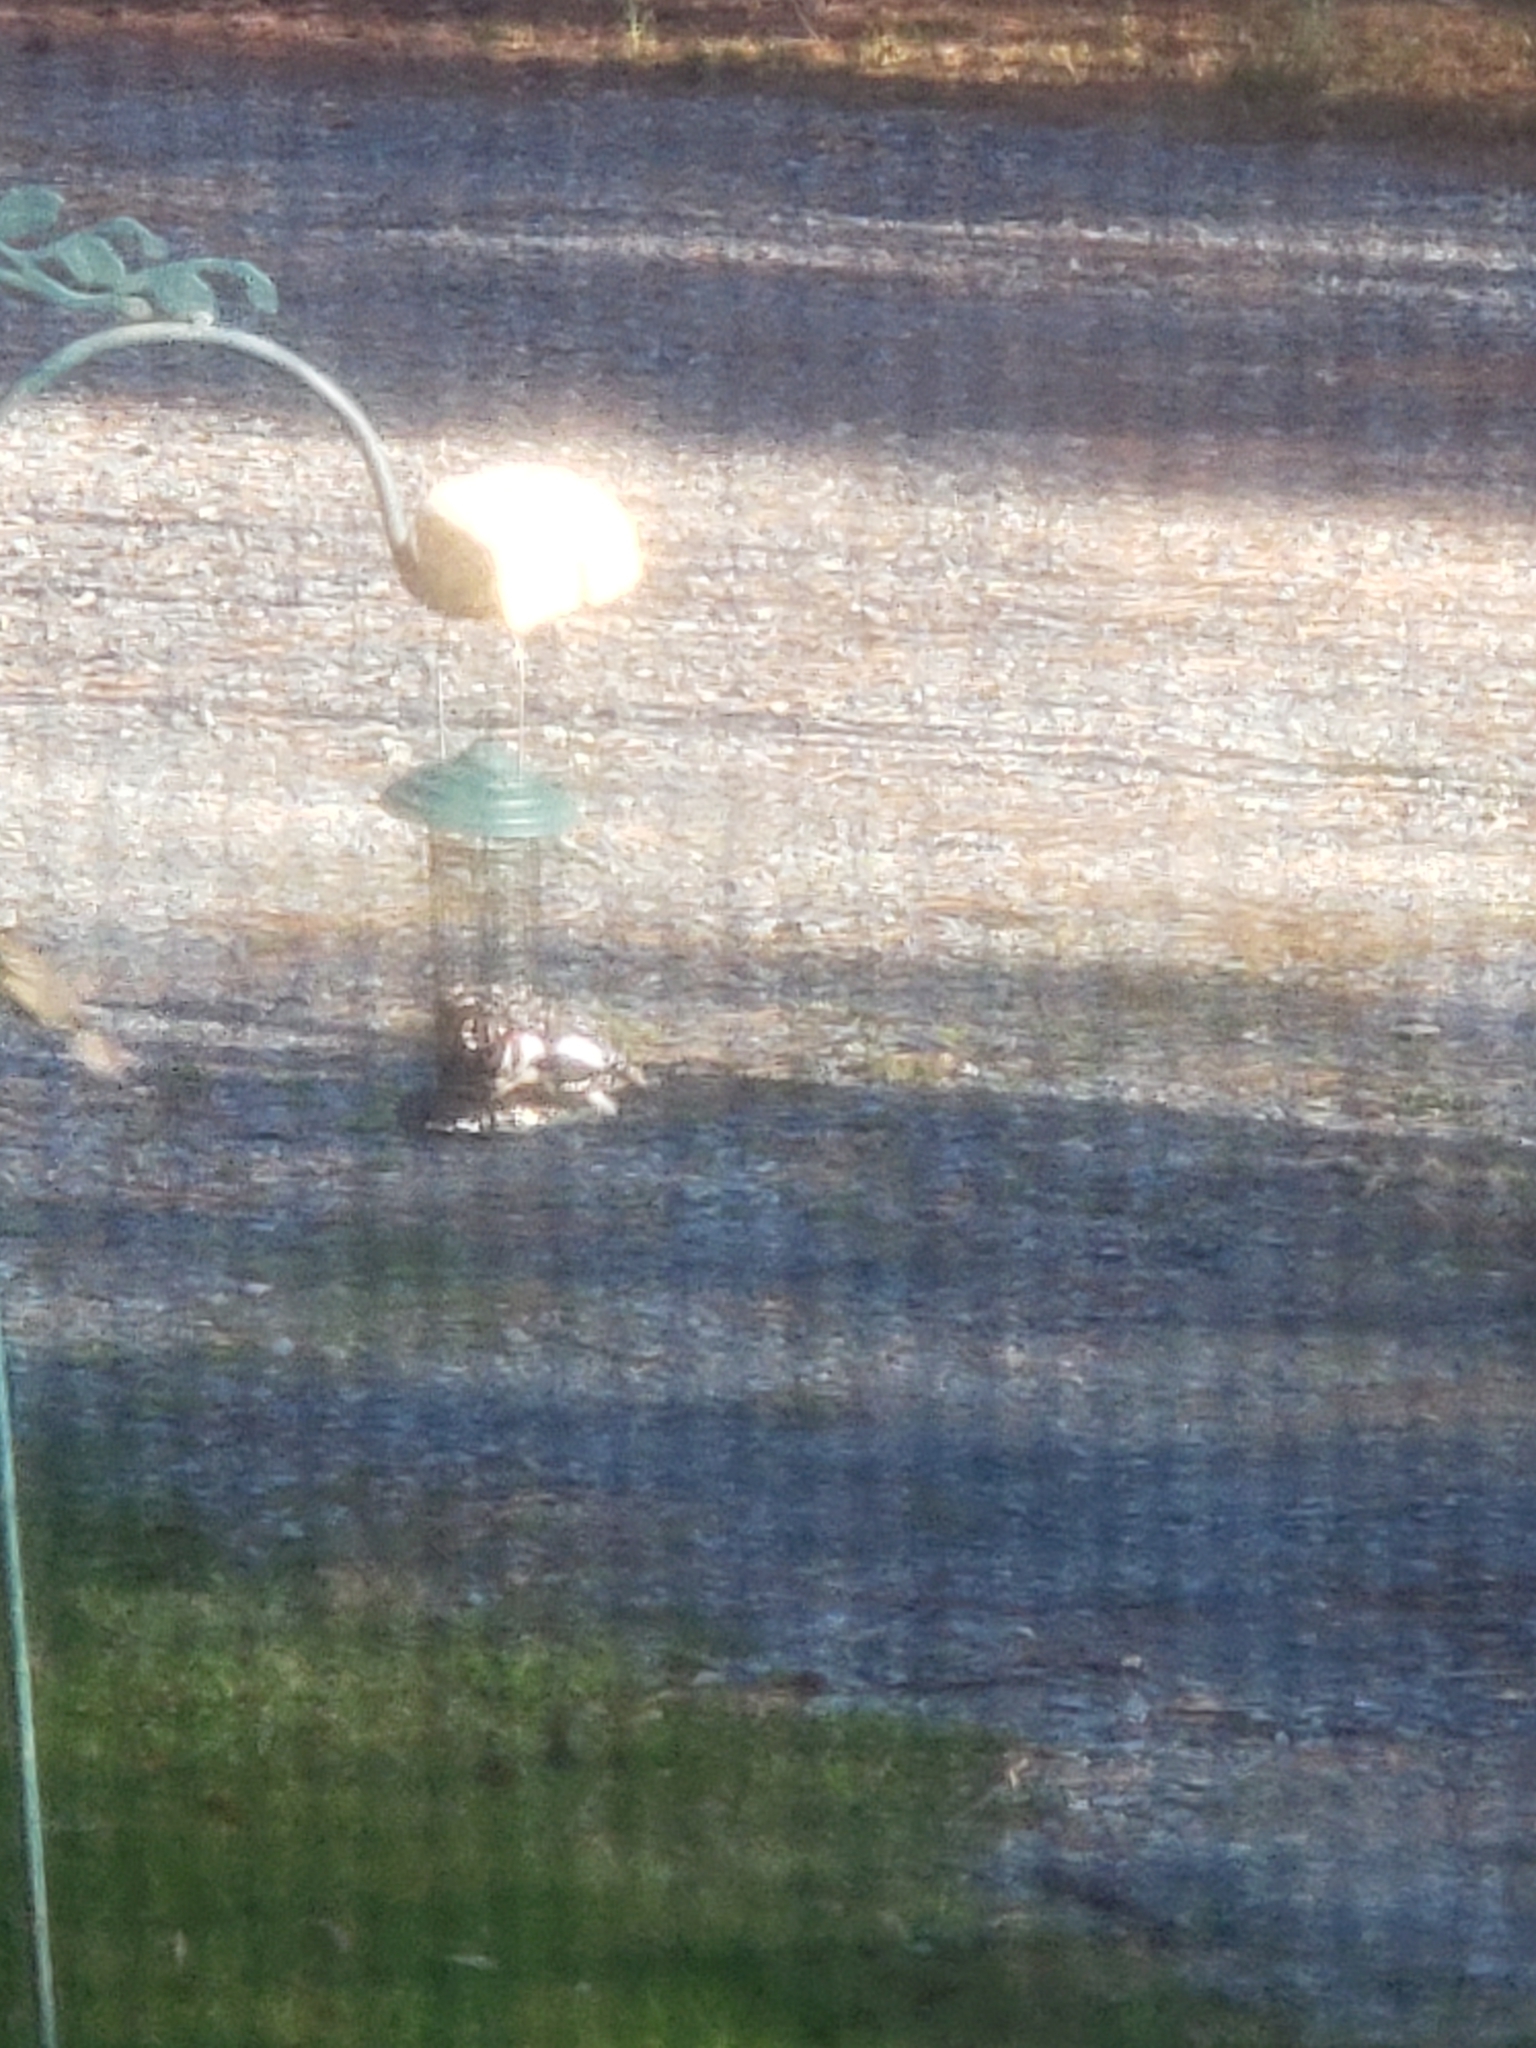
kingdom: Animalia
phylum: Chordata
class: Aves
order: Piciformes
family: Picidae
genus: Dryobates
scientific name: Dryobates pubescens
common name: Downy woodpecker
